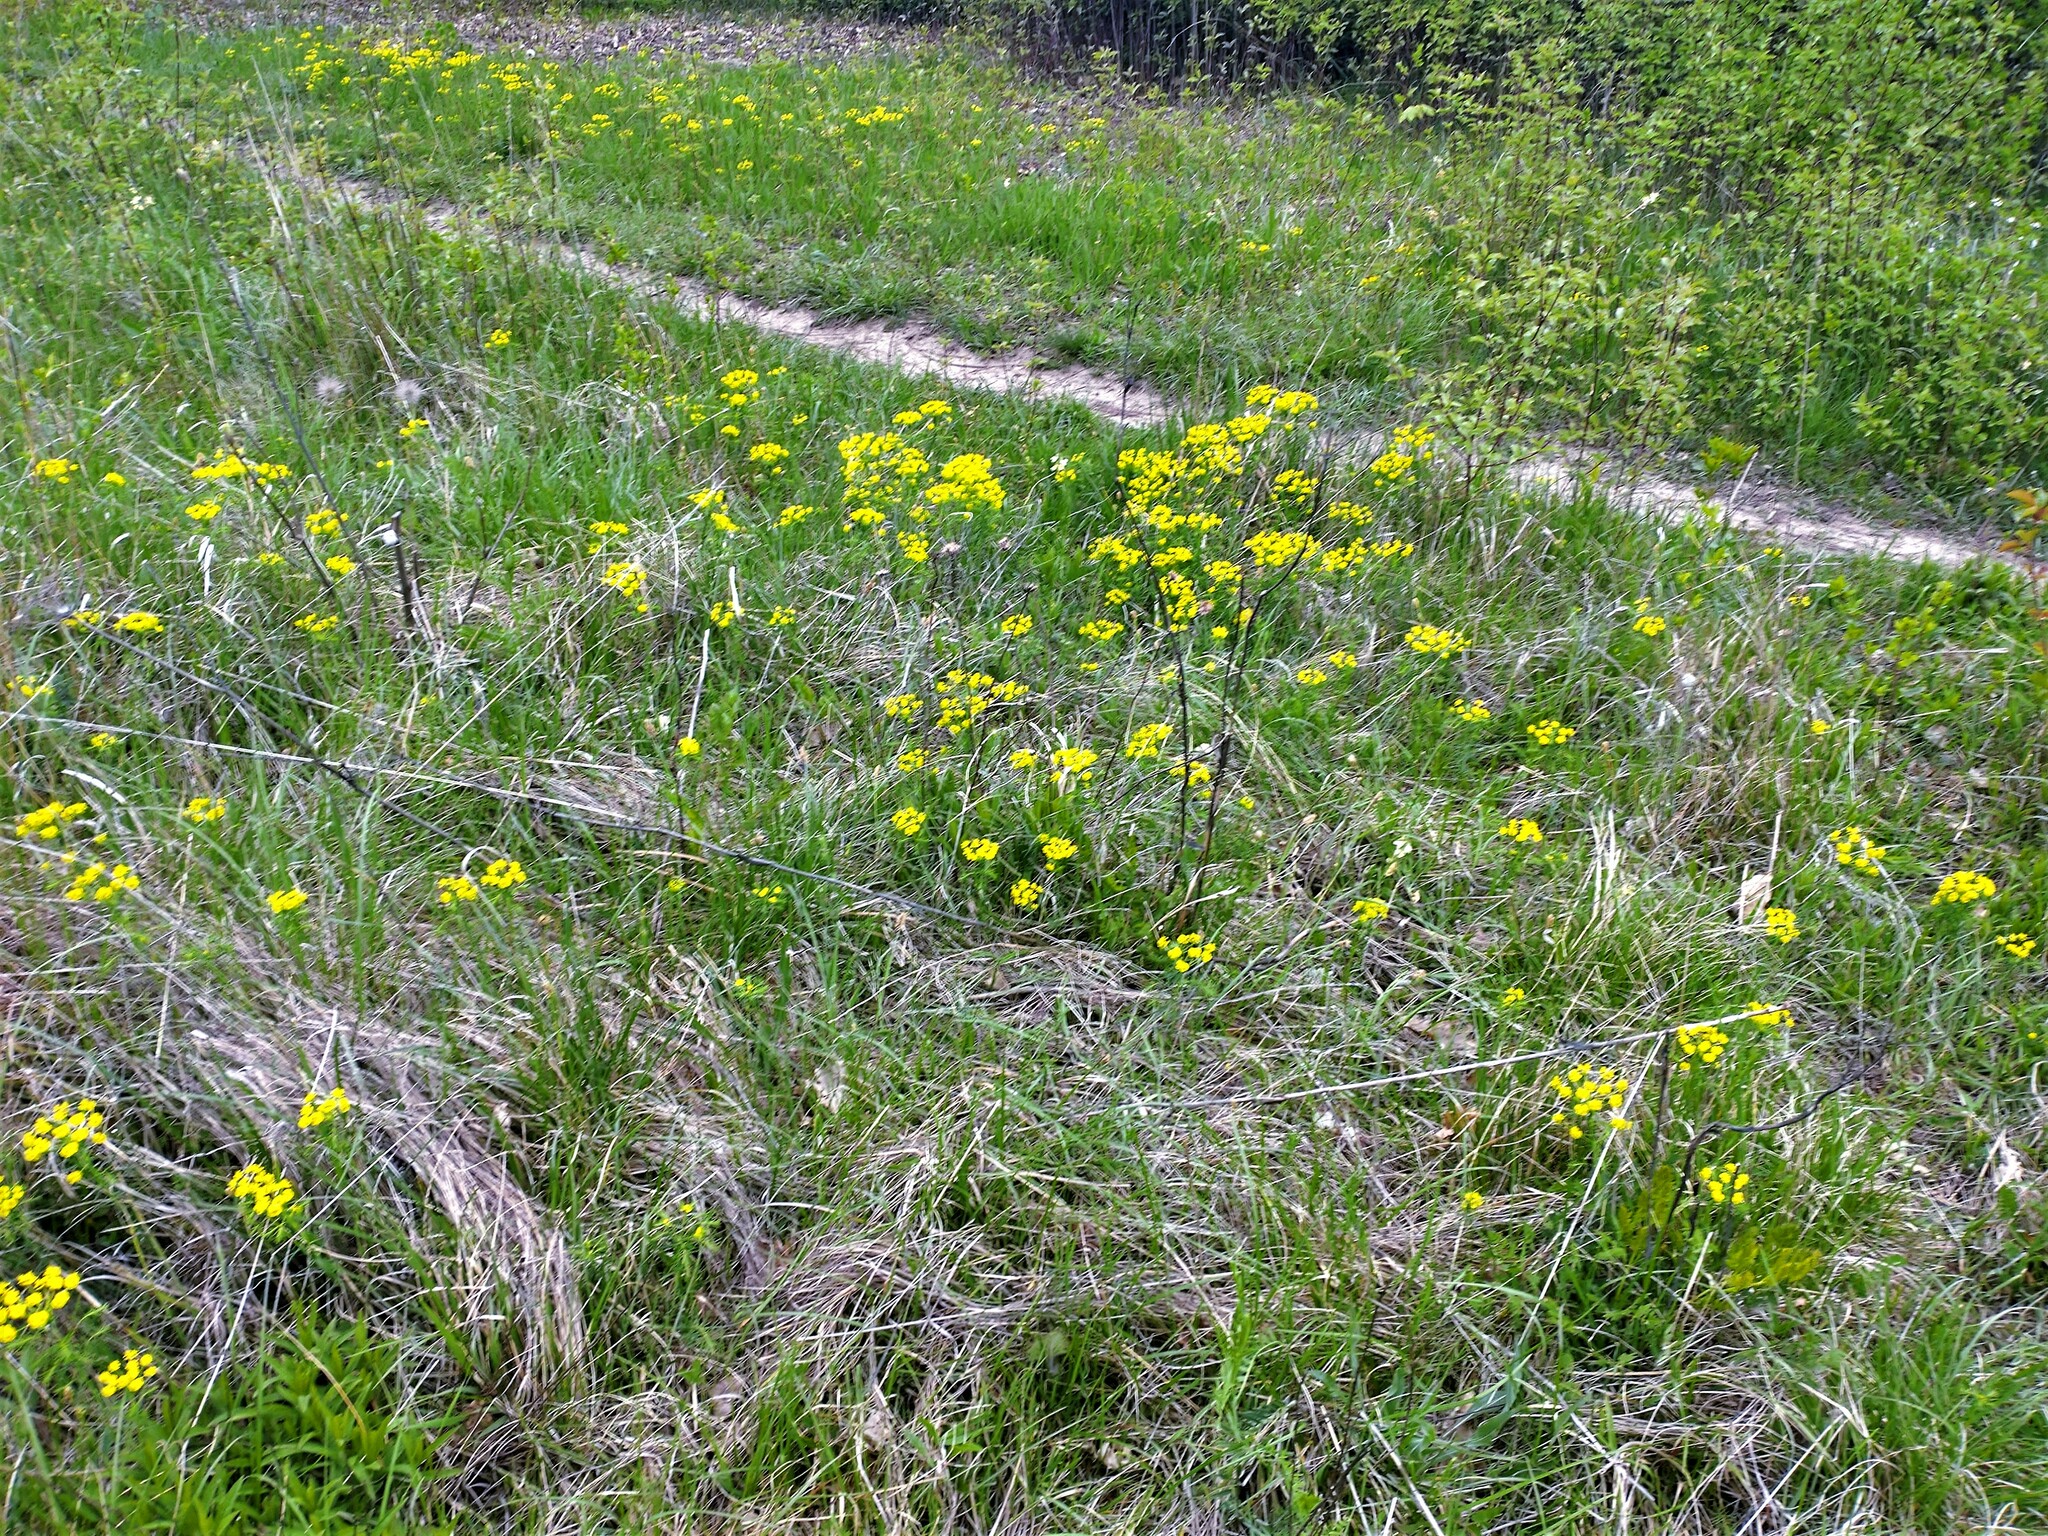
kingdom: Plantae
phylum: Tracheophyta
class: Magnoliopsida
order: Malpighiales
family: Euphorbiaceae
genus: Euphorbia
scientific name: Euphorbia cyparissias
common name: Cypress spurge
